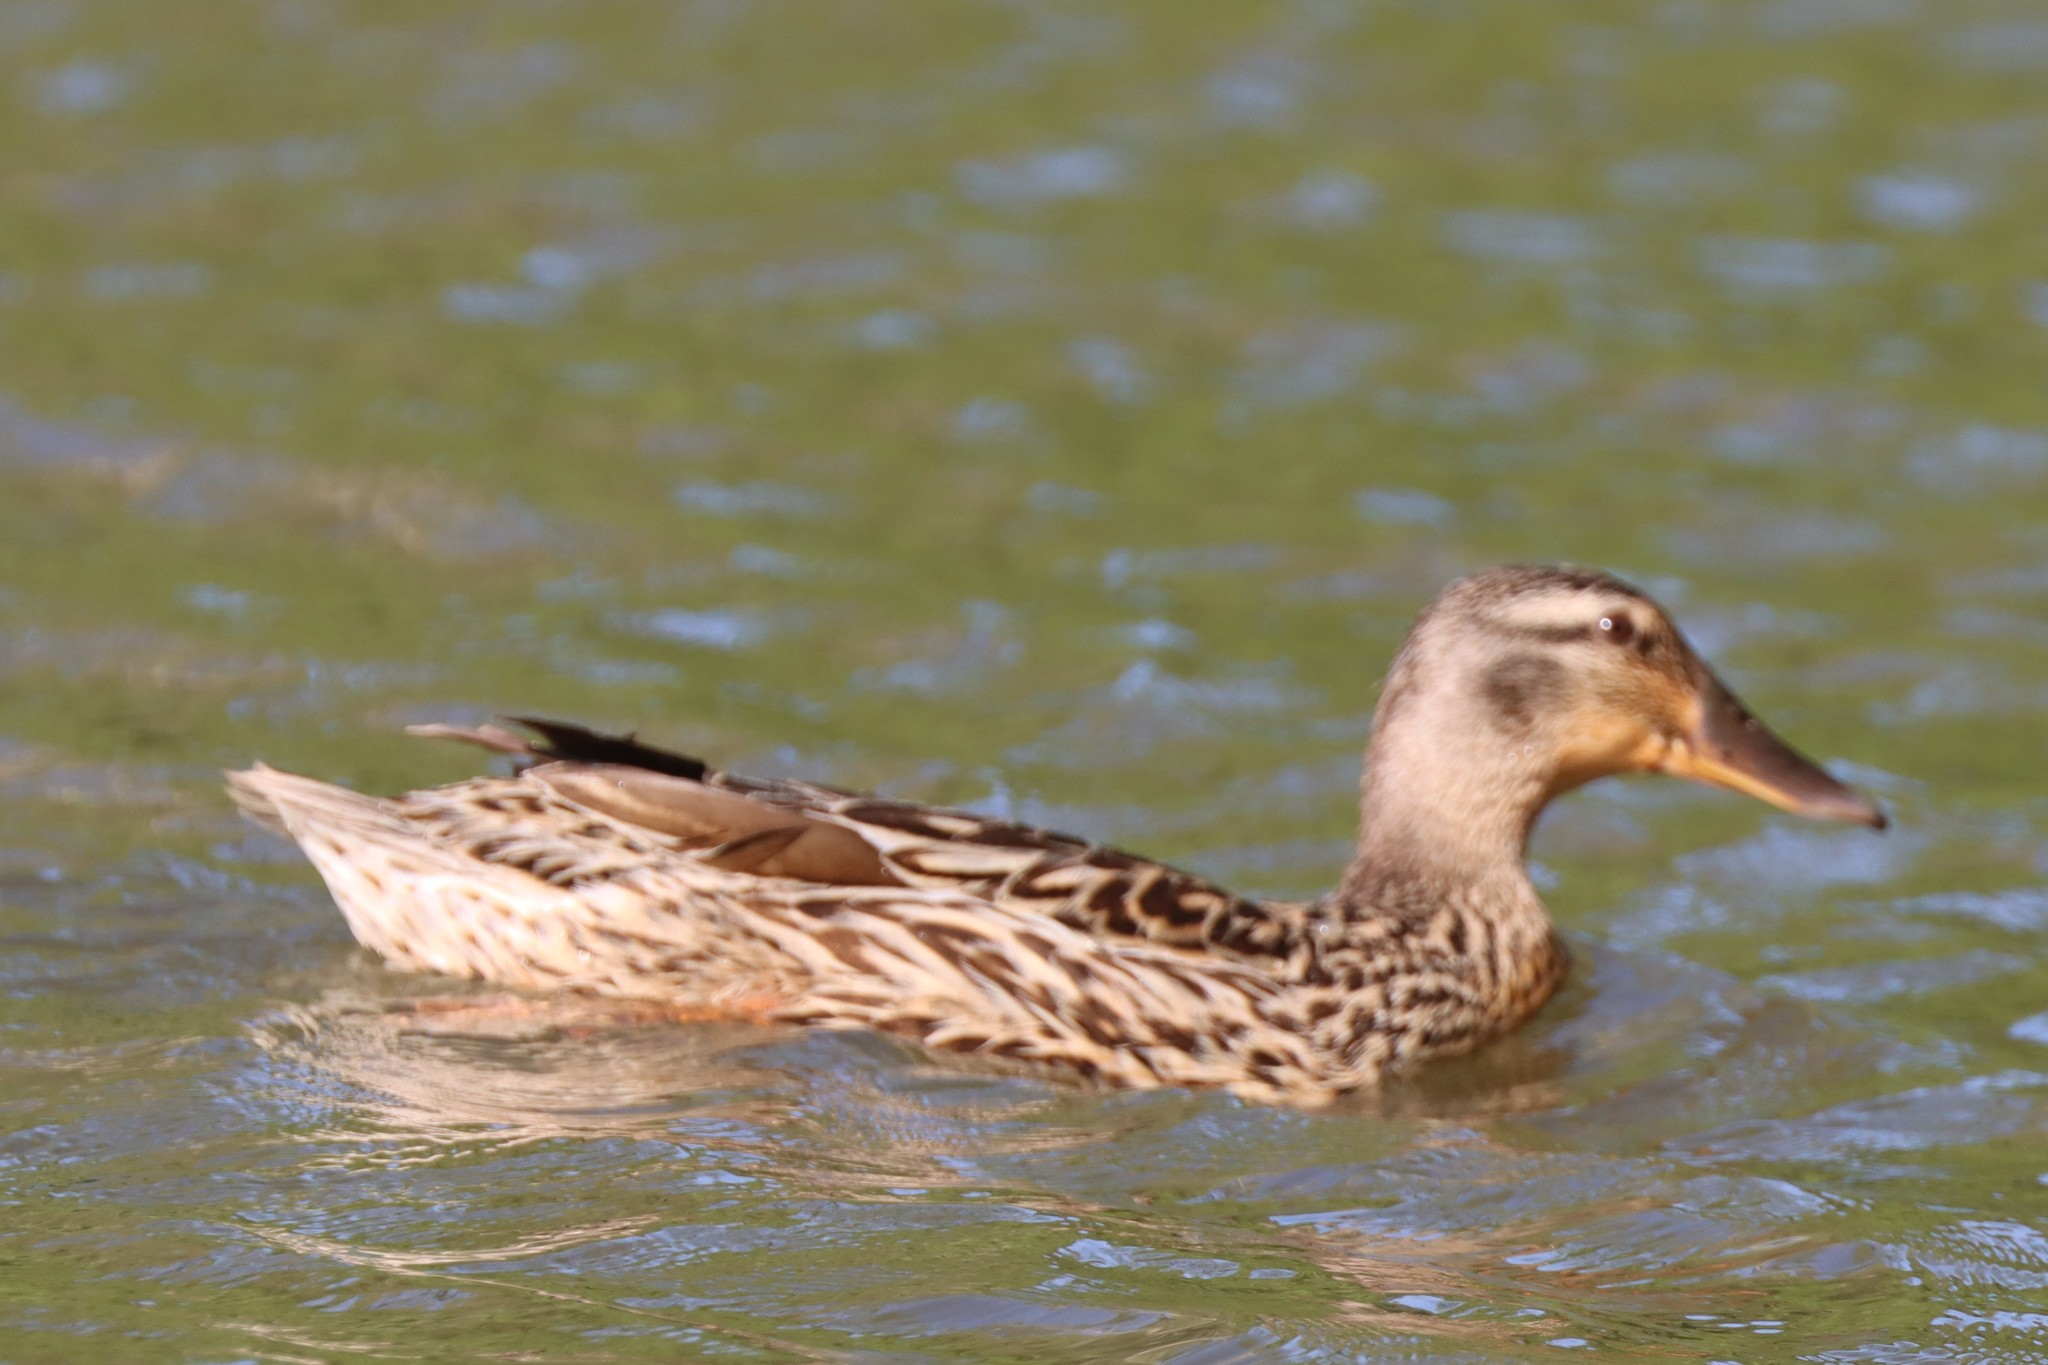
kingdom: Animalia
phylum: Chordata
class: Aves
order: Anseriformes
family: Anatidae
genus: Anas
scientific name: Anas platyrhynchos
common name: Mallard
